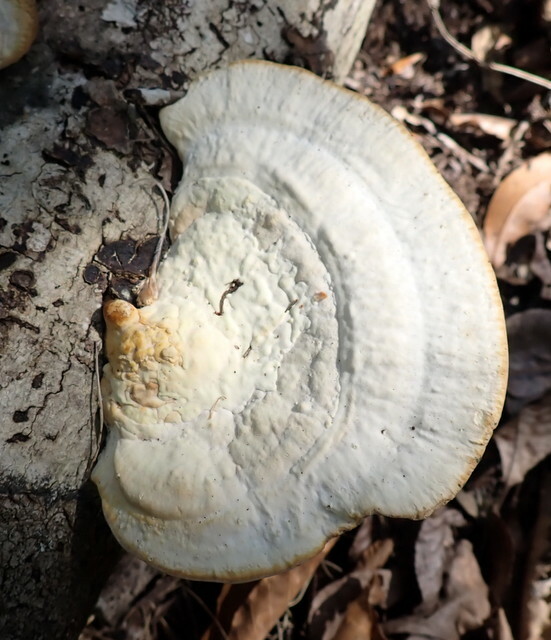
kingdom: Fungi
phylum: Basidiomycota
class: Agaricomycetes
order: Polyporales
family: Polyporaceae
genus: Trametes
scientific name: Trametes lactinea
